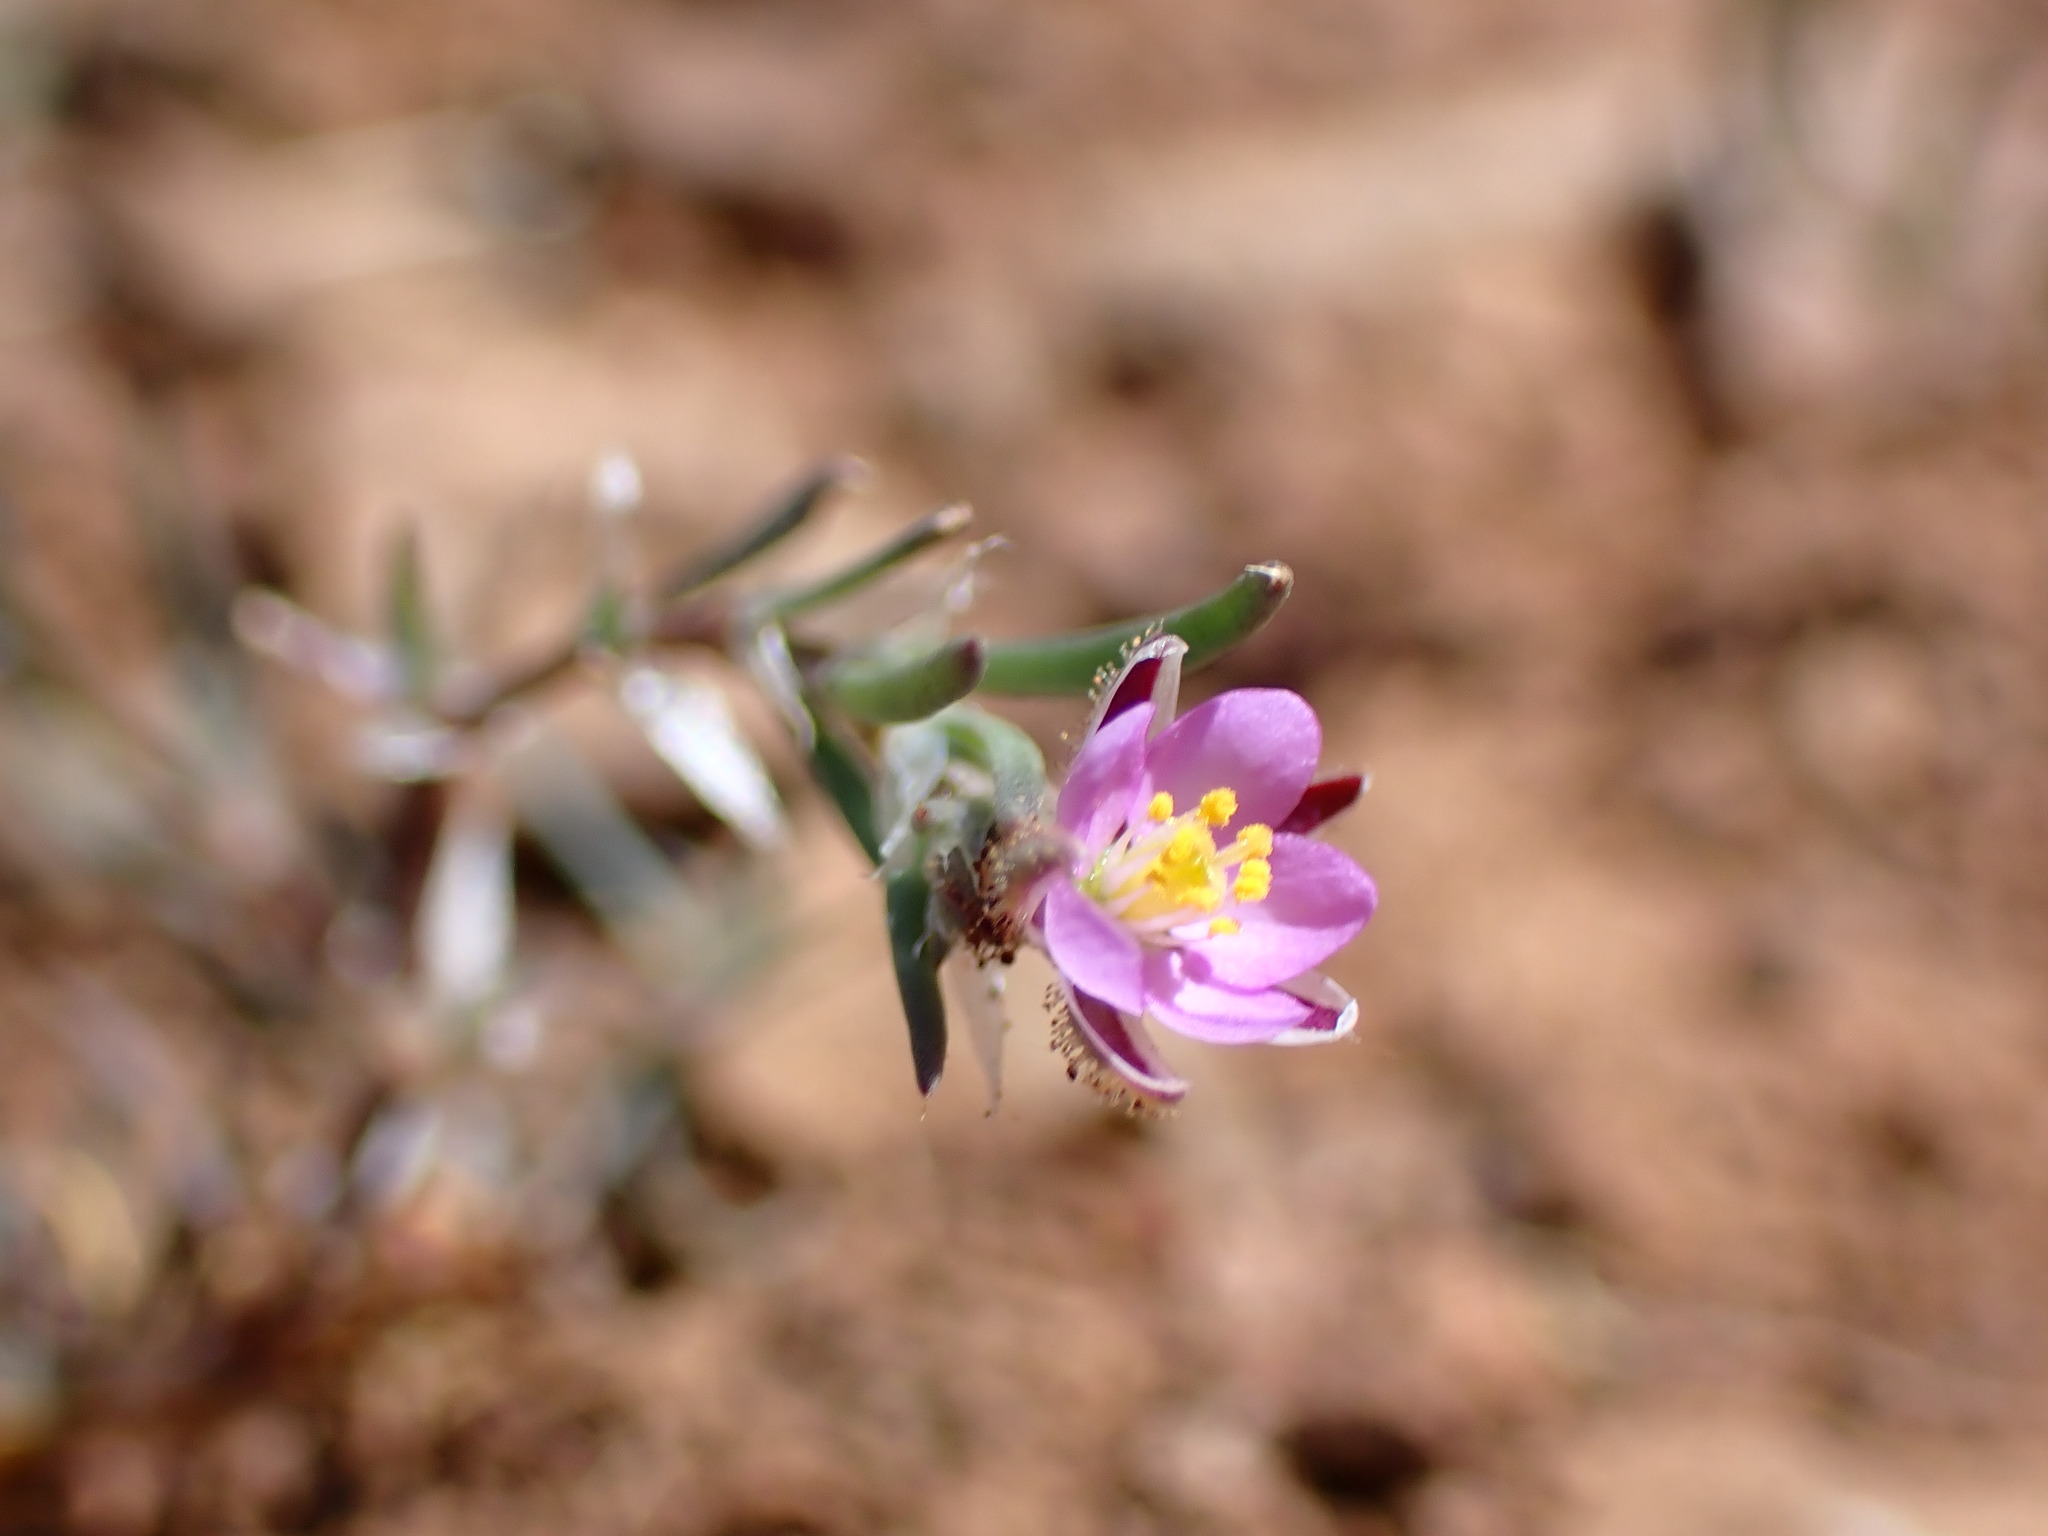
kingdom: Plantae
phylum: Tracheophyta
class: Magnoliopsida
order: Caryophyllales
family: Caryophyllaceae
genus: Spergularia
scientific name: Spergularia rubra
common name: Red sand-spurrey
